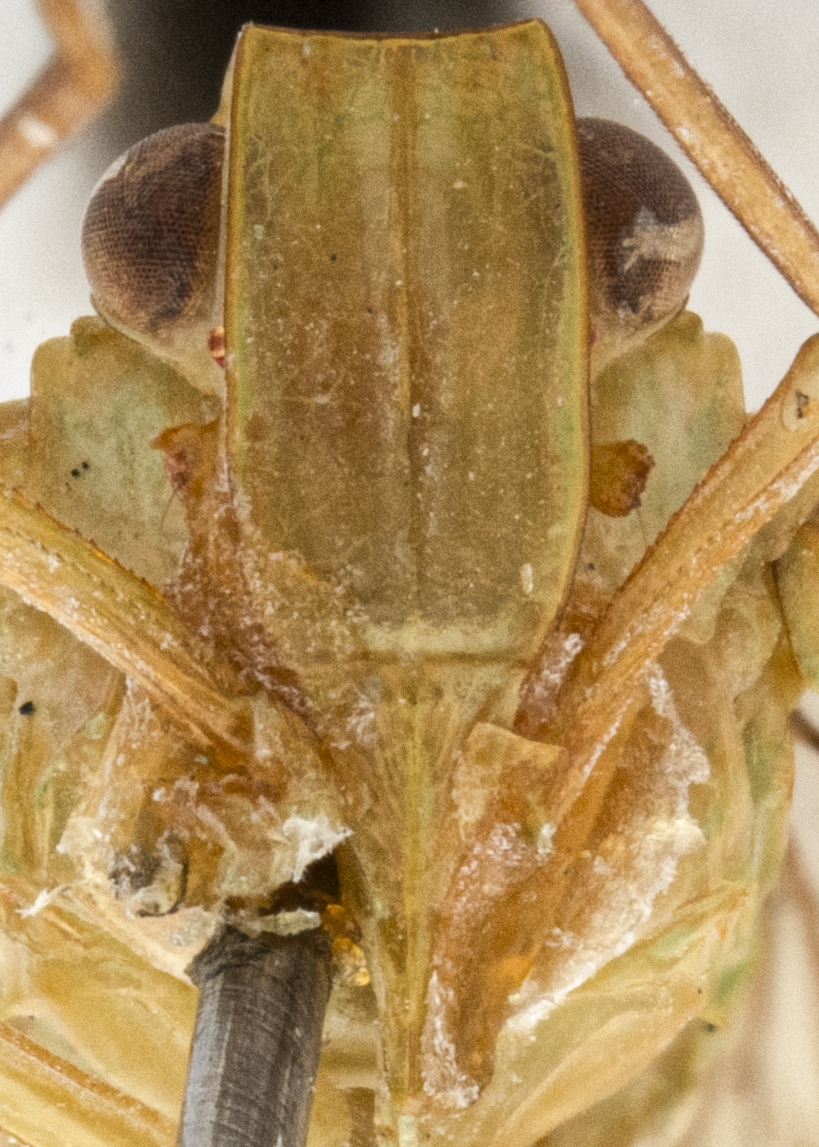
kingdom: Animalia
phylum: Arthropoda
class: Insecta
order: Hemiptera
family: Nogodinidae
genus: Neovarcia
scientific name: Neovarcia lurida
